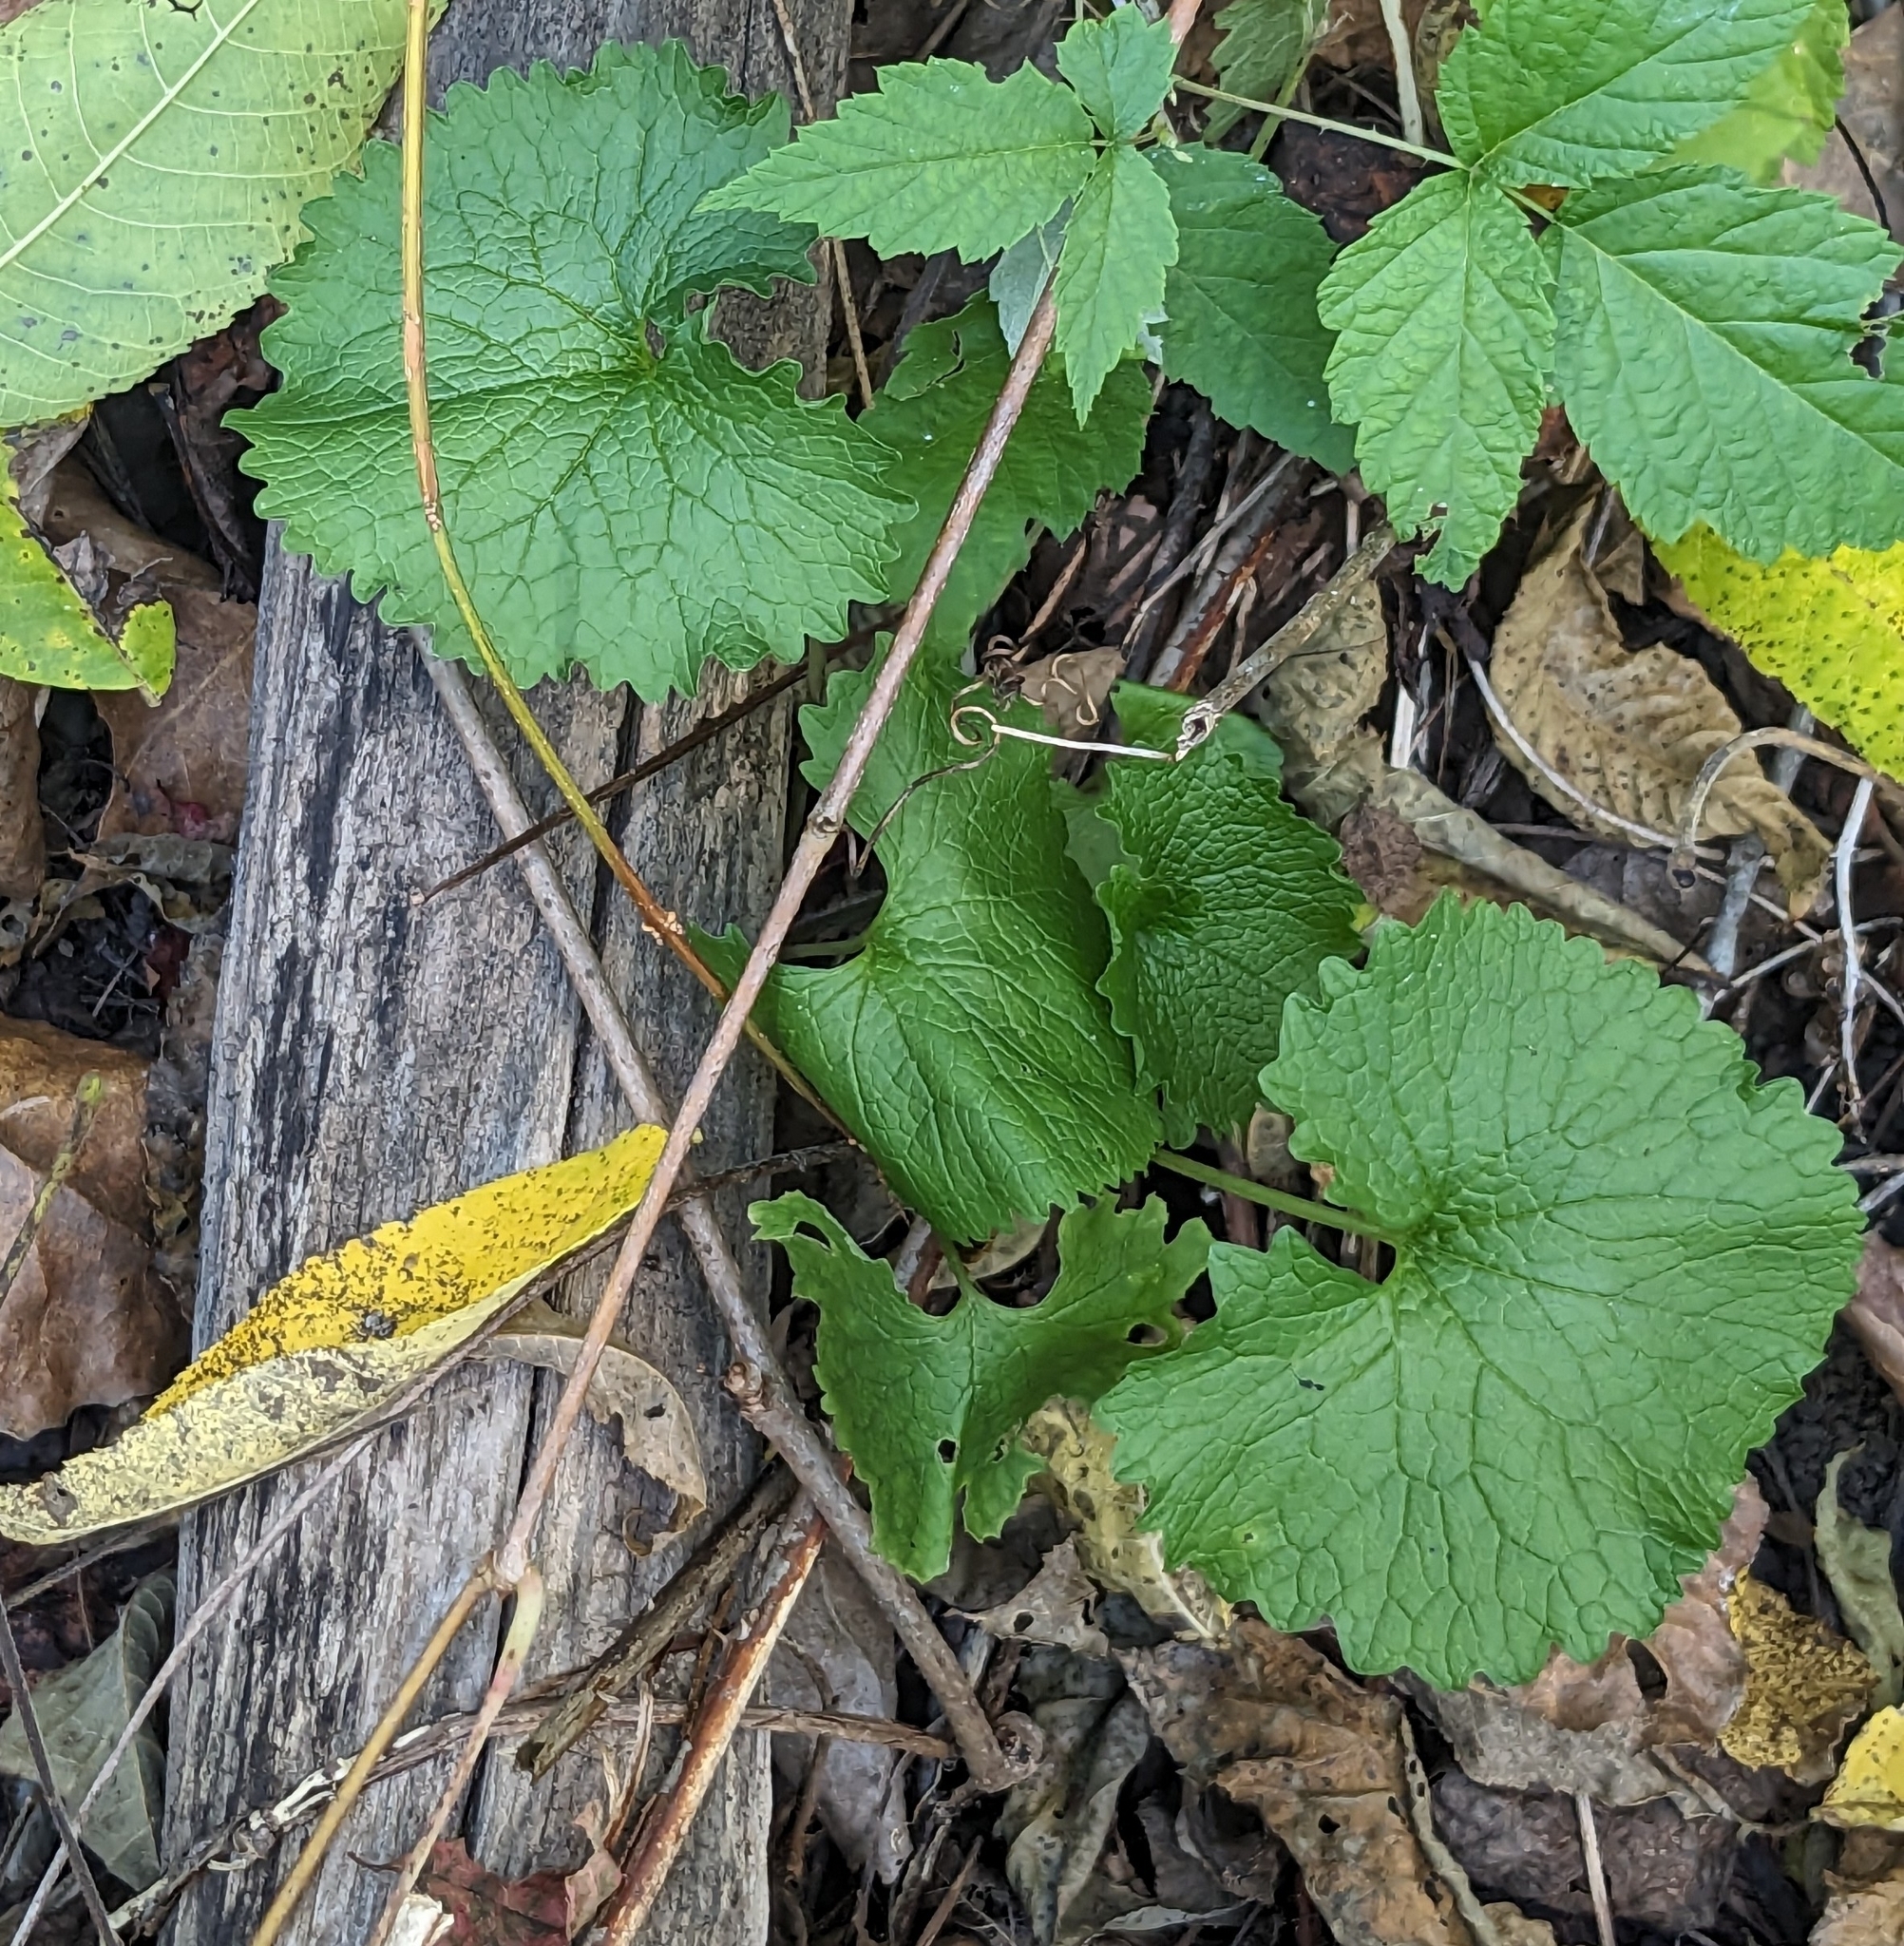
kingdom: Plantae
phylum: Tracheophyta
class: Magnoliopsida
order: Brassicales
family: Brassicaceae
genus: Alliaria
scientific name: Alliaria petiolata
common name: Garlic mustard
